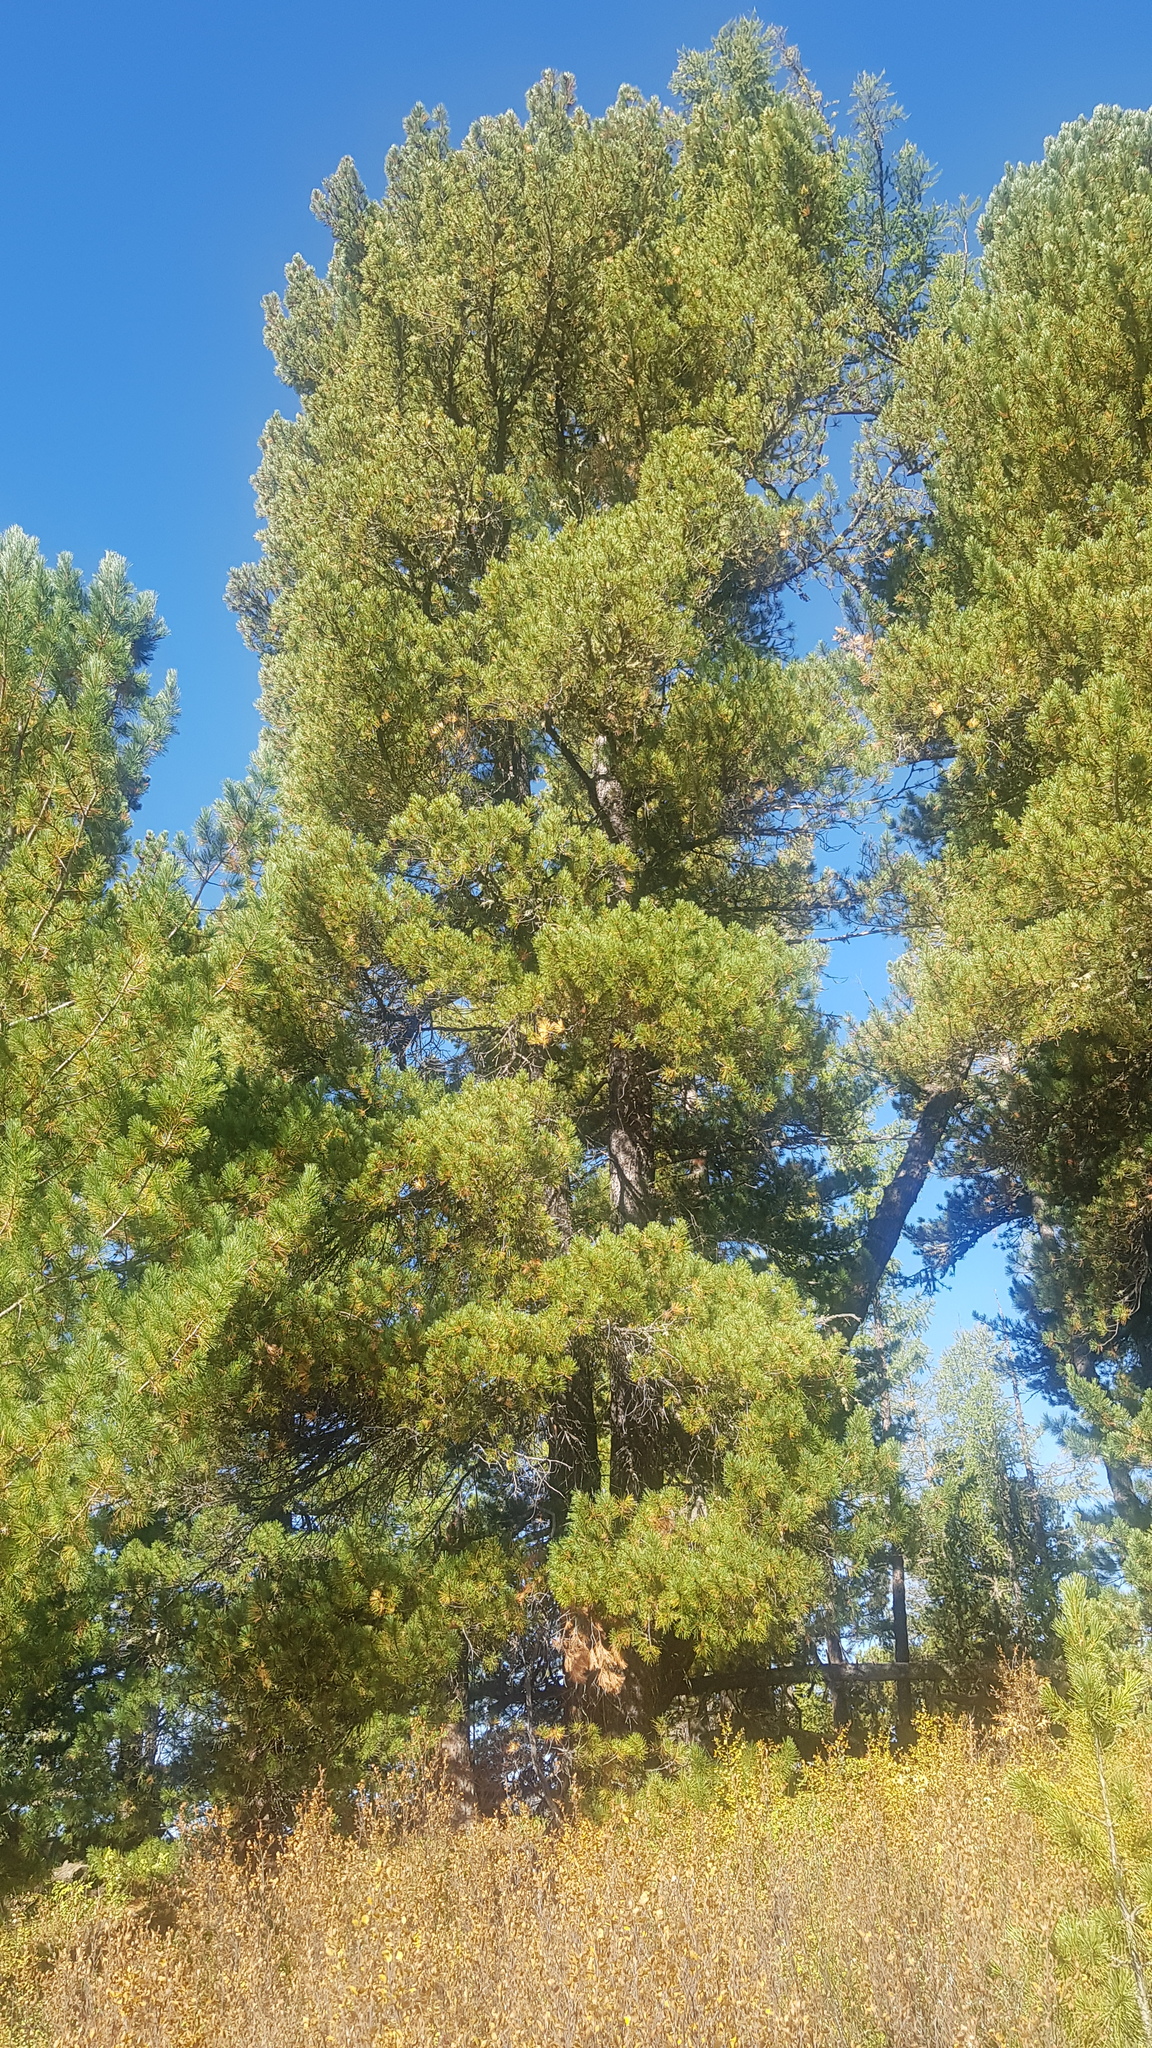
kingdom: Plantae
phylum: Tracheophyta
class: Pinopsida
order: Pinales
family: Pinaceae
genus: Pinus
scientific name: Pinus sibirica
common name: Siberian pine
